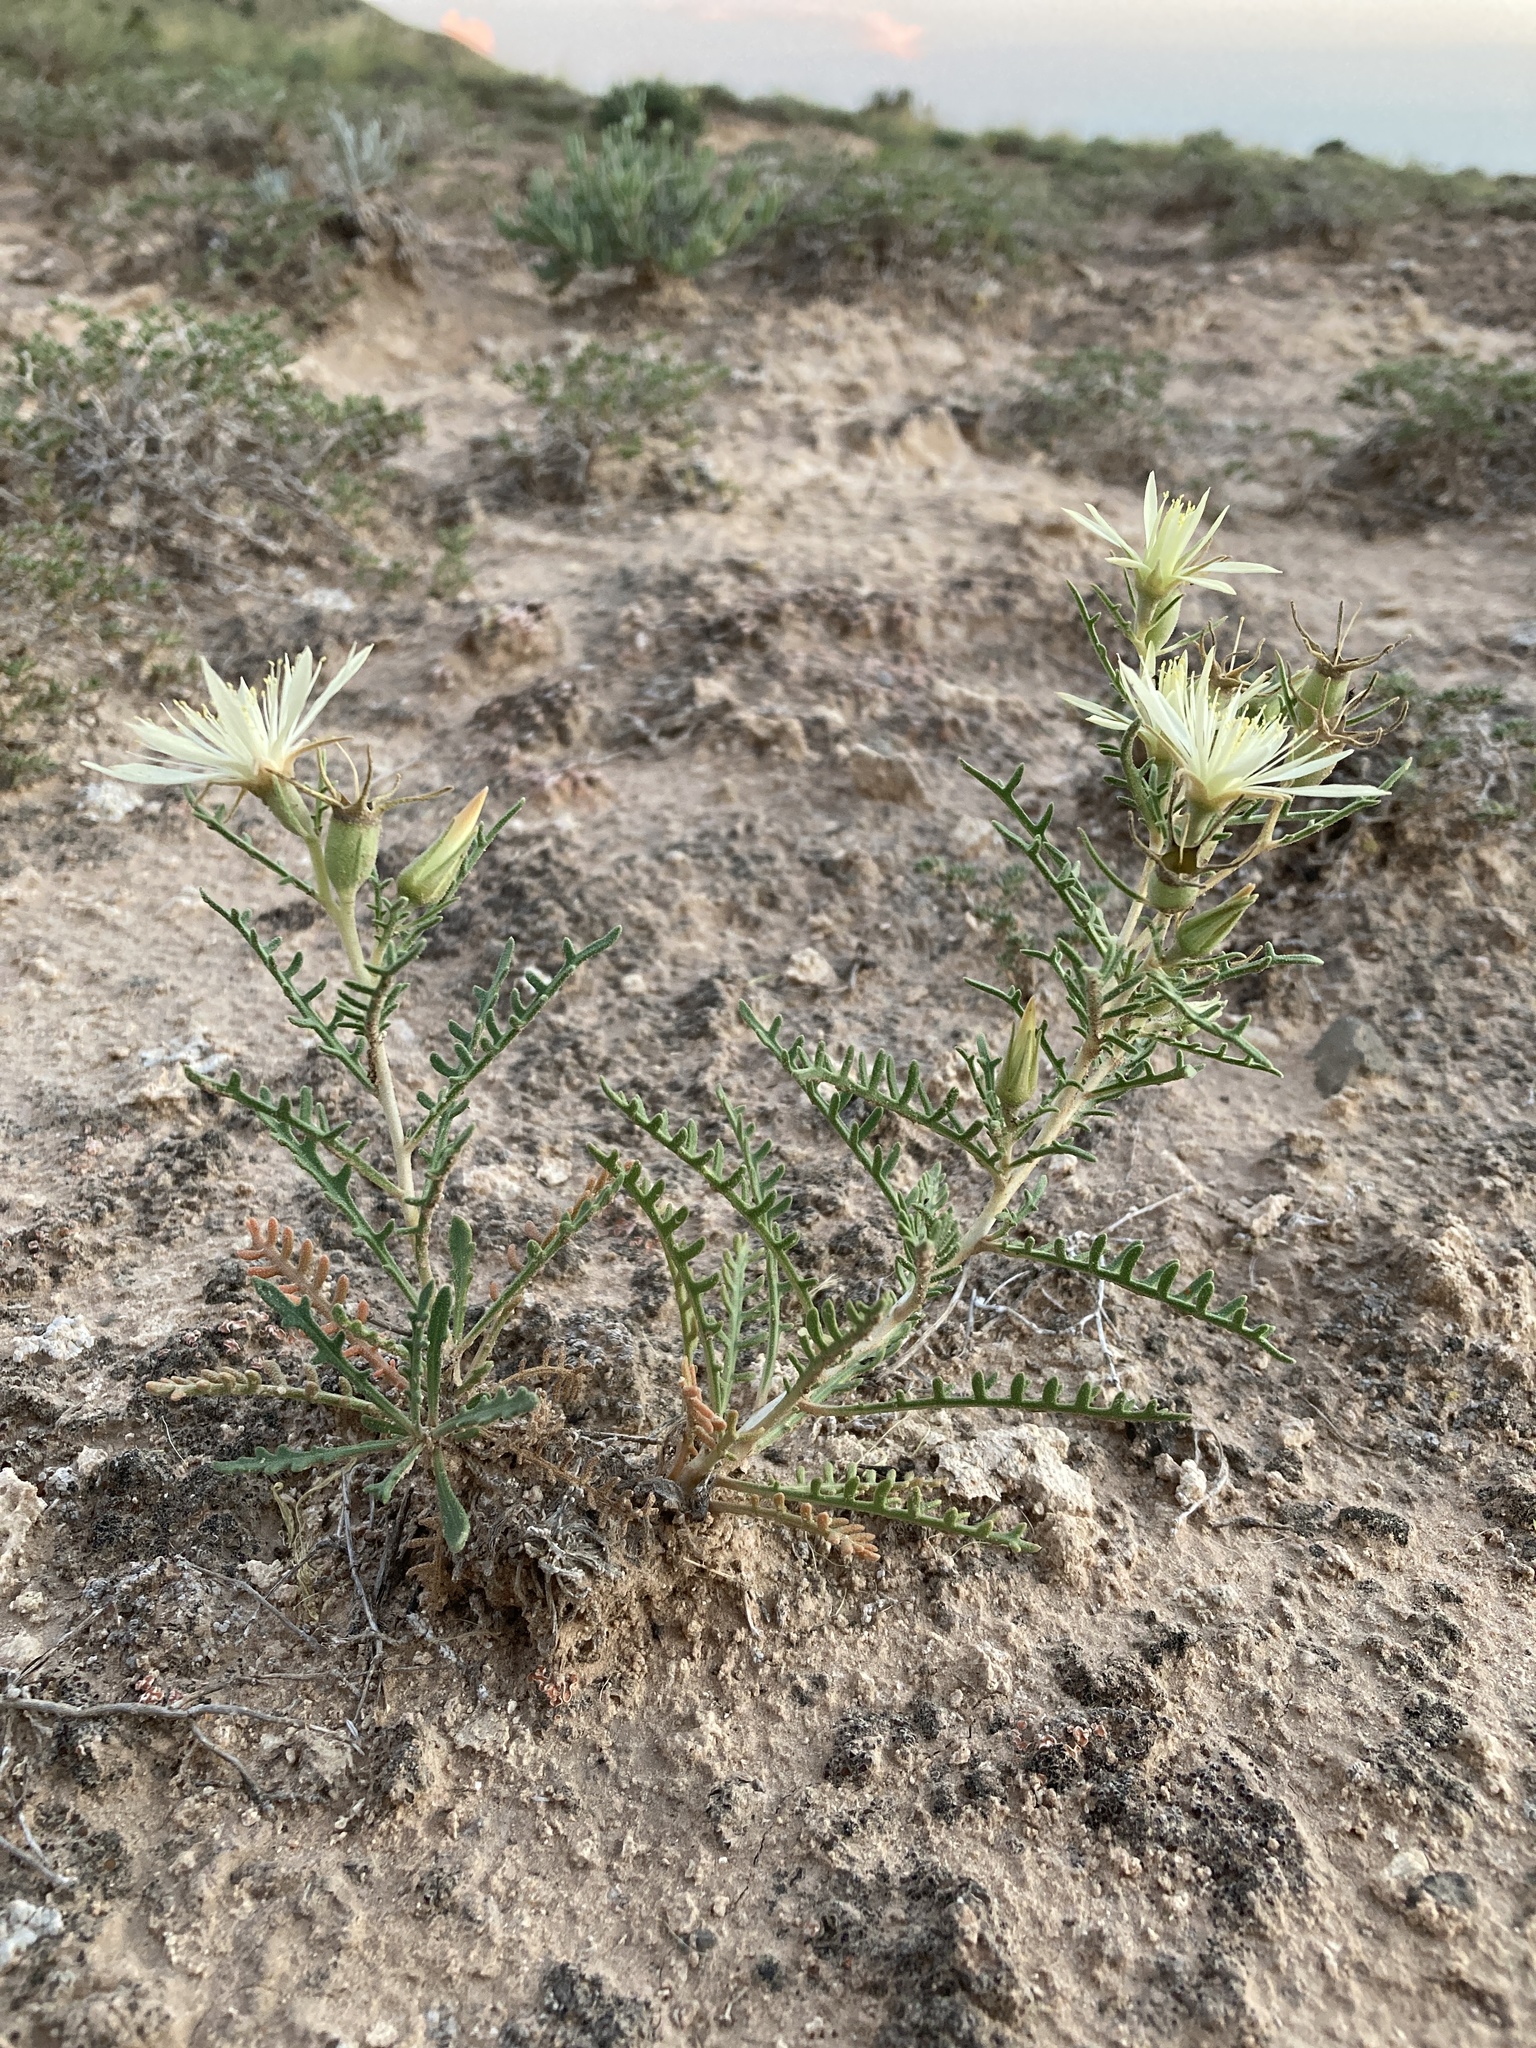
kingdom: Plantae
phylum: Tracheophyta
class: Magnoliopsida
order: Cornales
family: Loasaceae
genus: Mentzelia
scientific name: Mentzelia humilis
